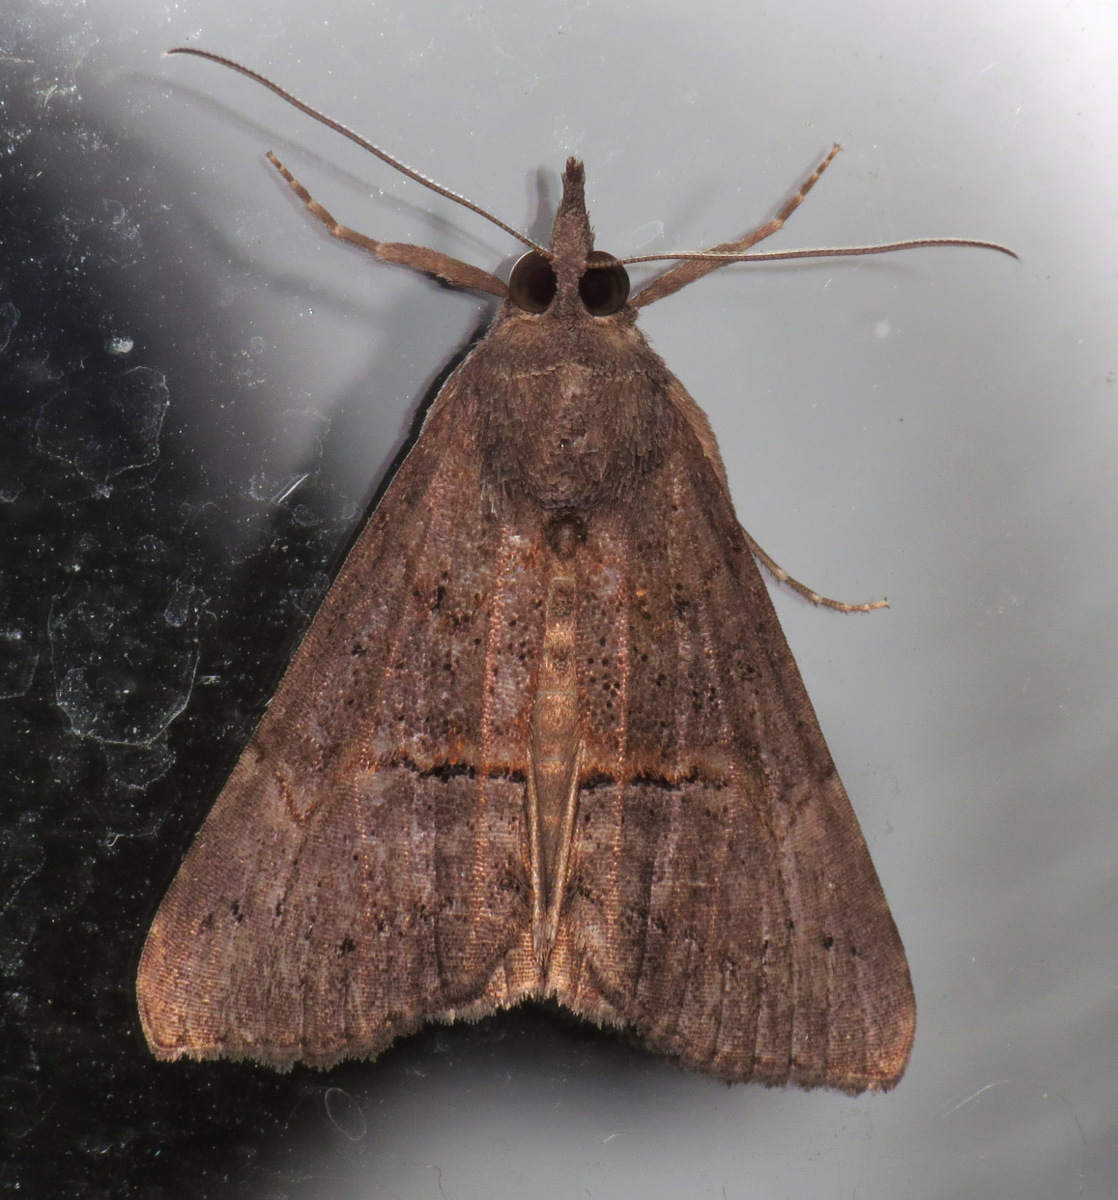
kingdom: Animalia
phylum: Arthropoda
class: Insecta
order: Lepidoptera
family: Erebidae
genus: Hypena
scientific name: Hypena scabra
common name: Green cloverworm
